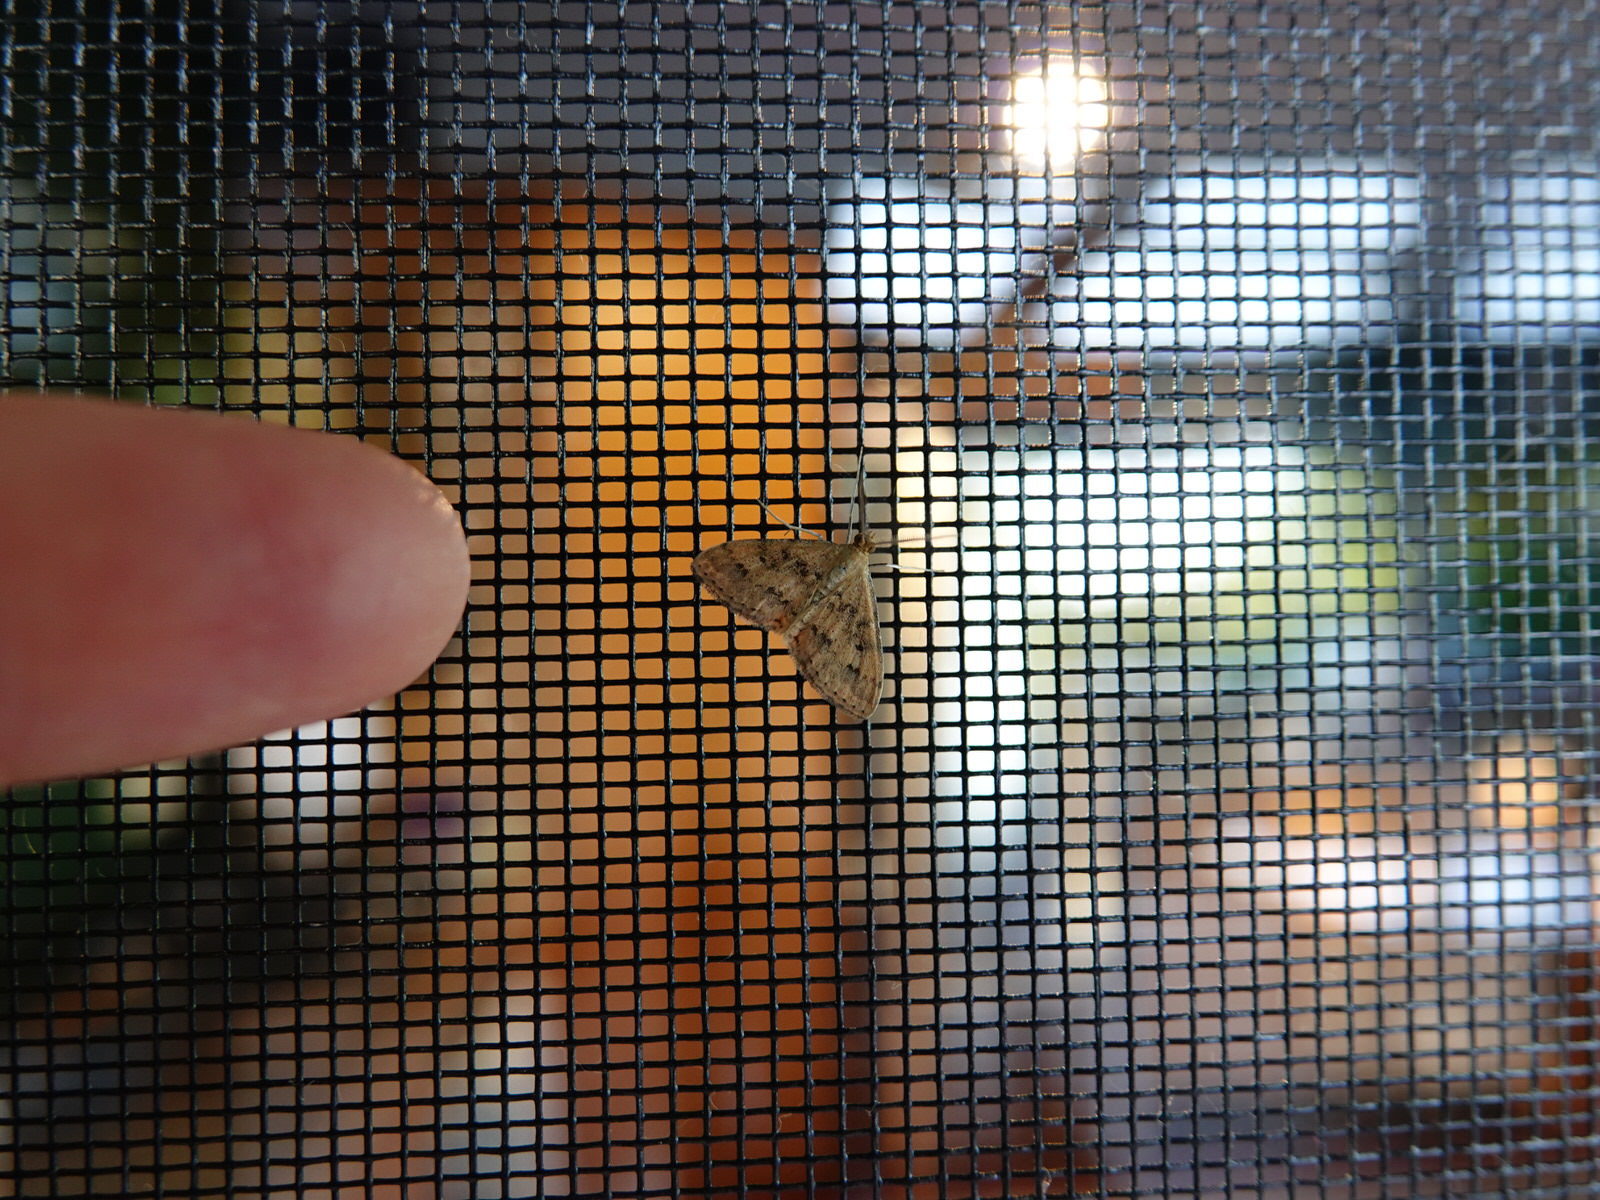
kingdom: Animalia
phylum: Arthropoda
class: Insecta
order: Lepidoptera
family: Geometridae
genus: Scopula
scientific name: Scopula rubraria
